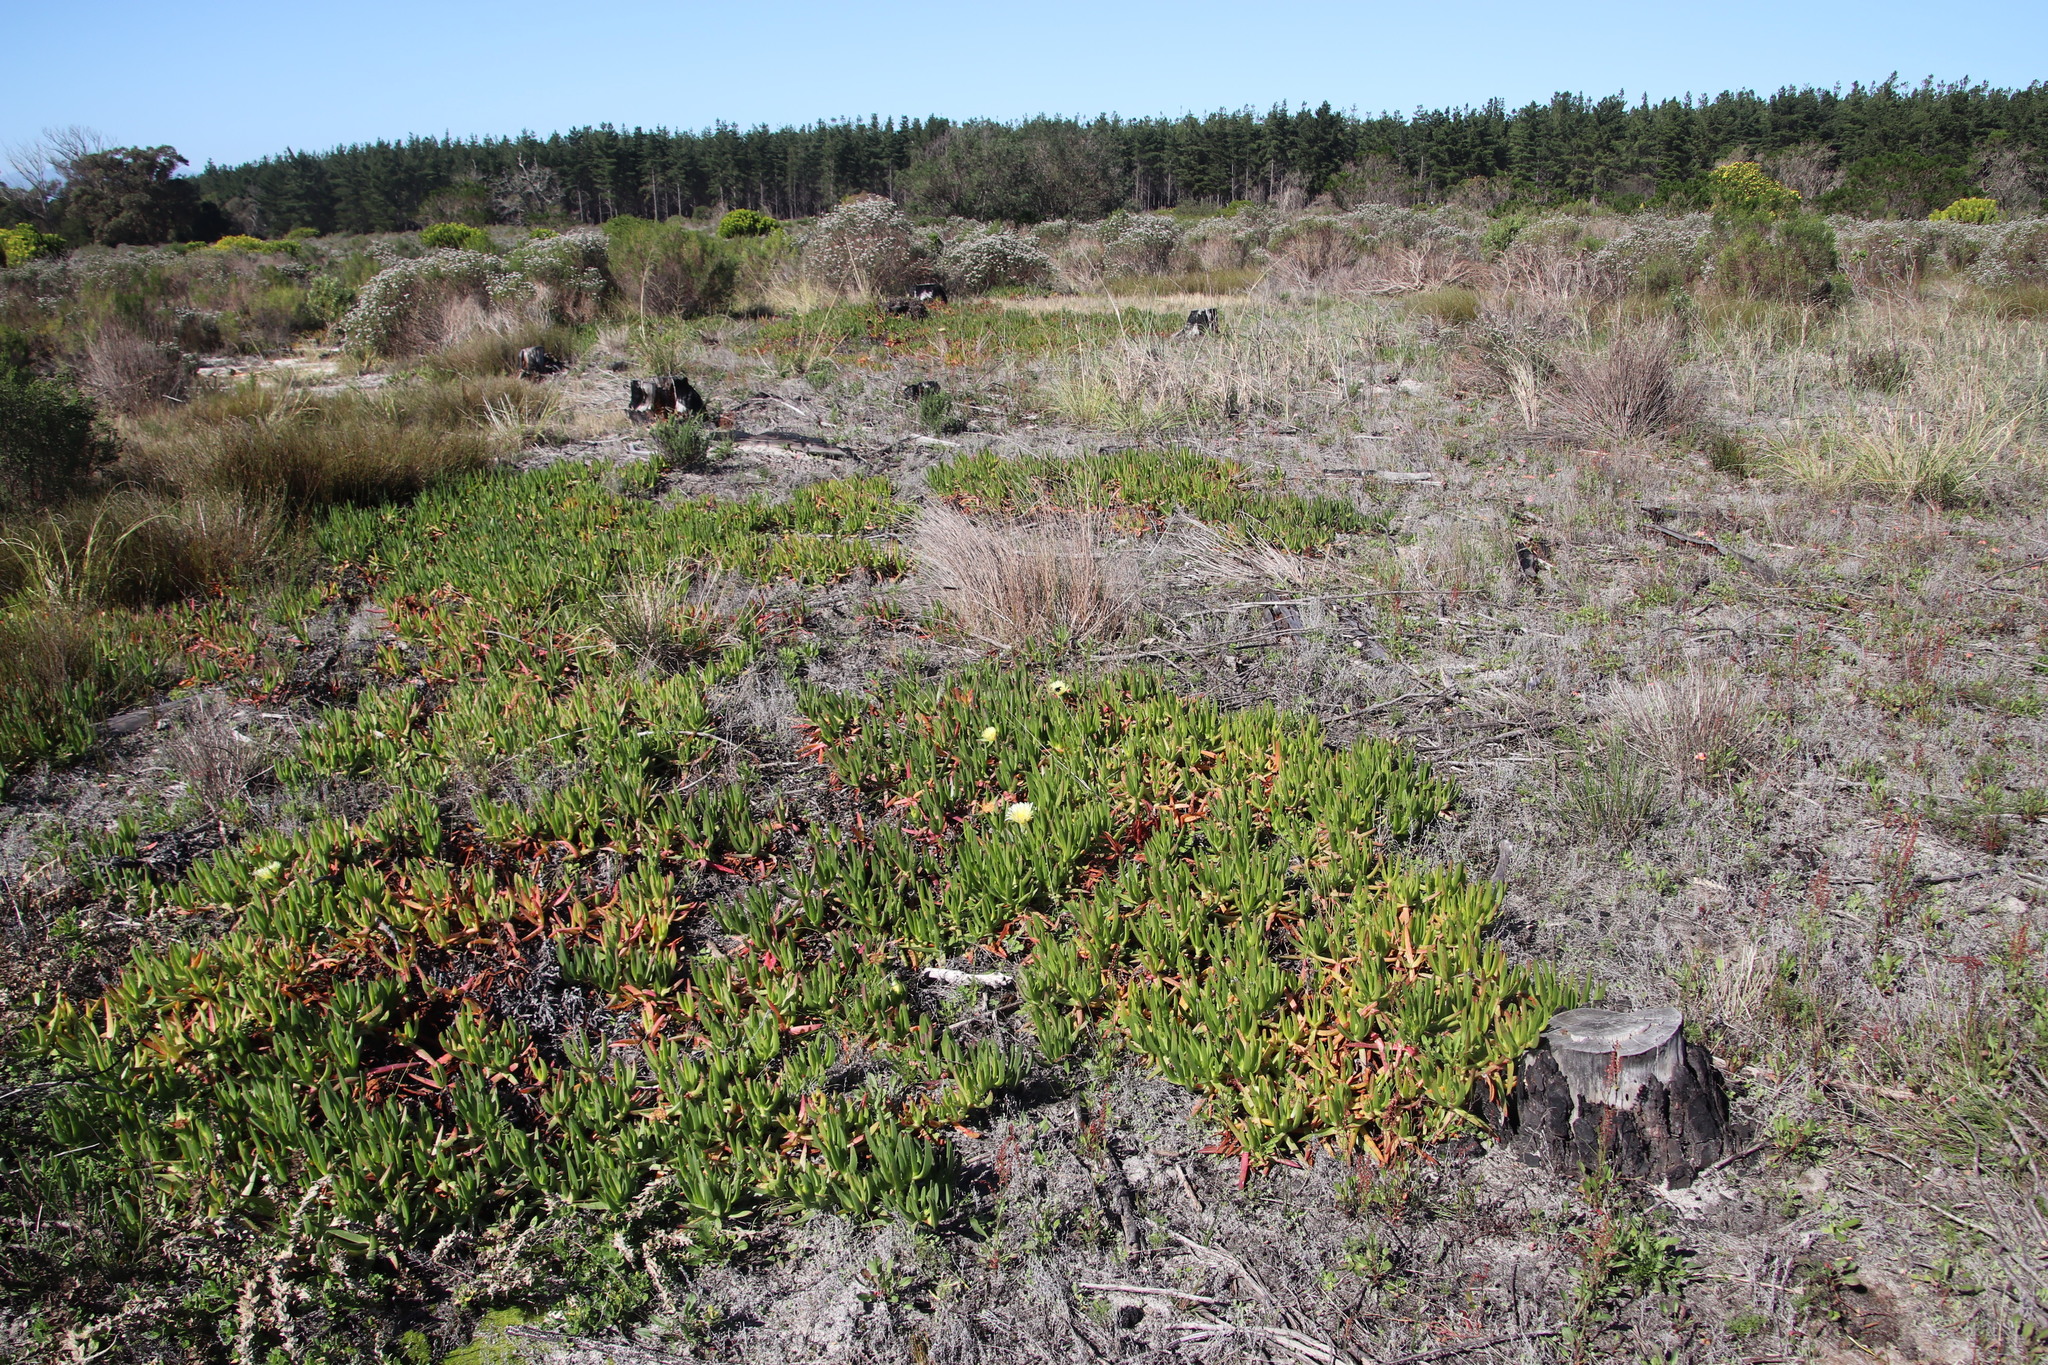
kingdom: Plantae
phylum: Tracheophyta
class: Magnoliopsida
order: Caryophyllales
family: Aizoaceae
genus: Carpobrotus
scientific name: Carpobrotus edulis
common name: Hottentot-fig
